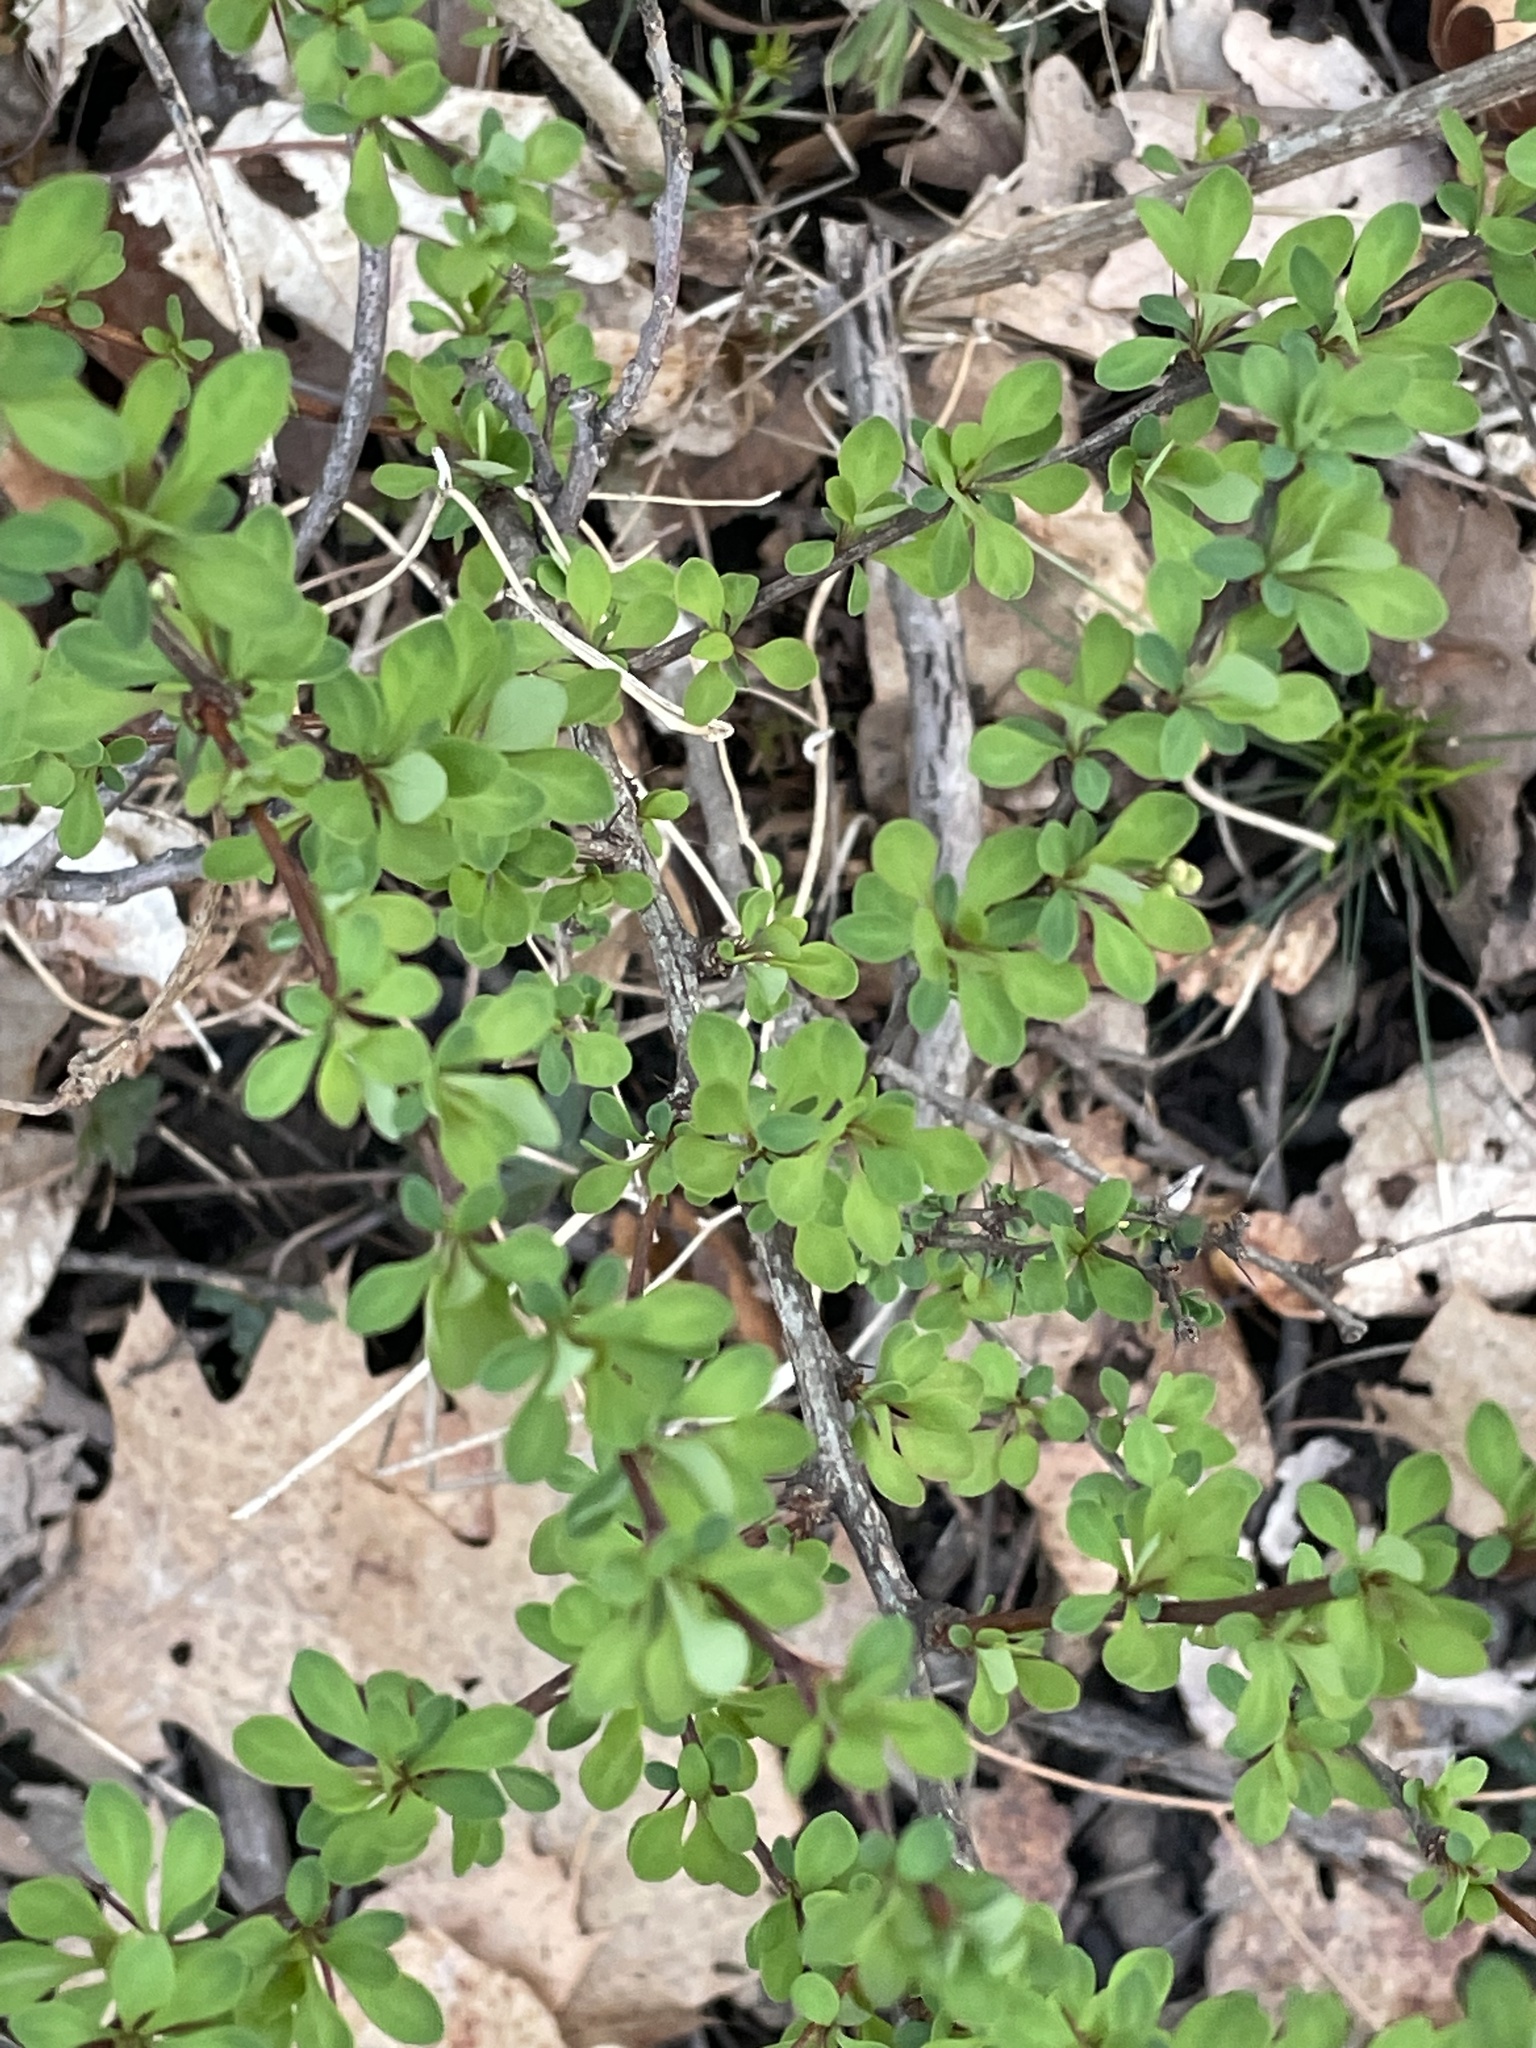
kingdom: Plantae
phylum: Tracheophyta
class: Magnoliopsida
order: Ranunculales
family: Berberidaceae
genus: Berberis
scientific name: Berberis thunbergii
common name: Japanese barberry
